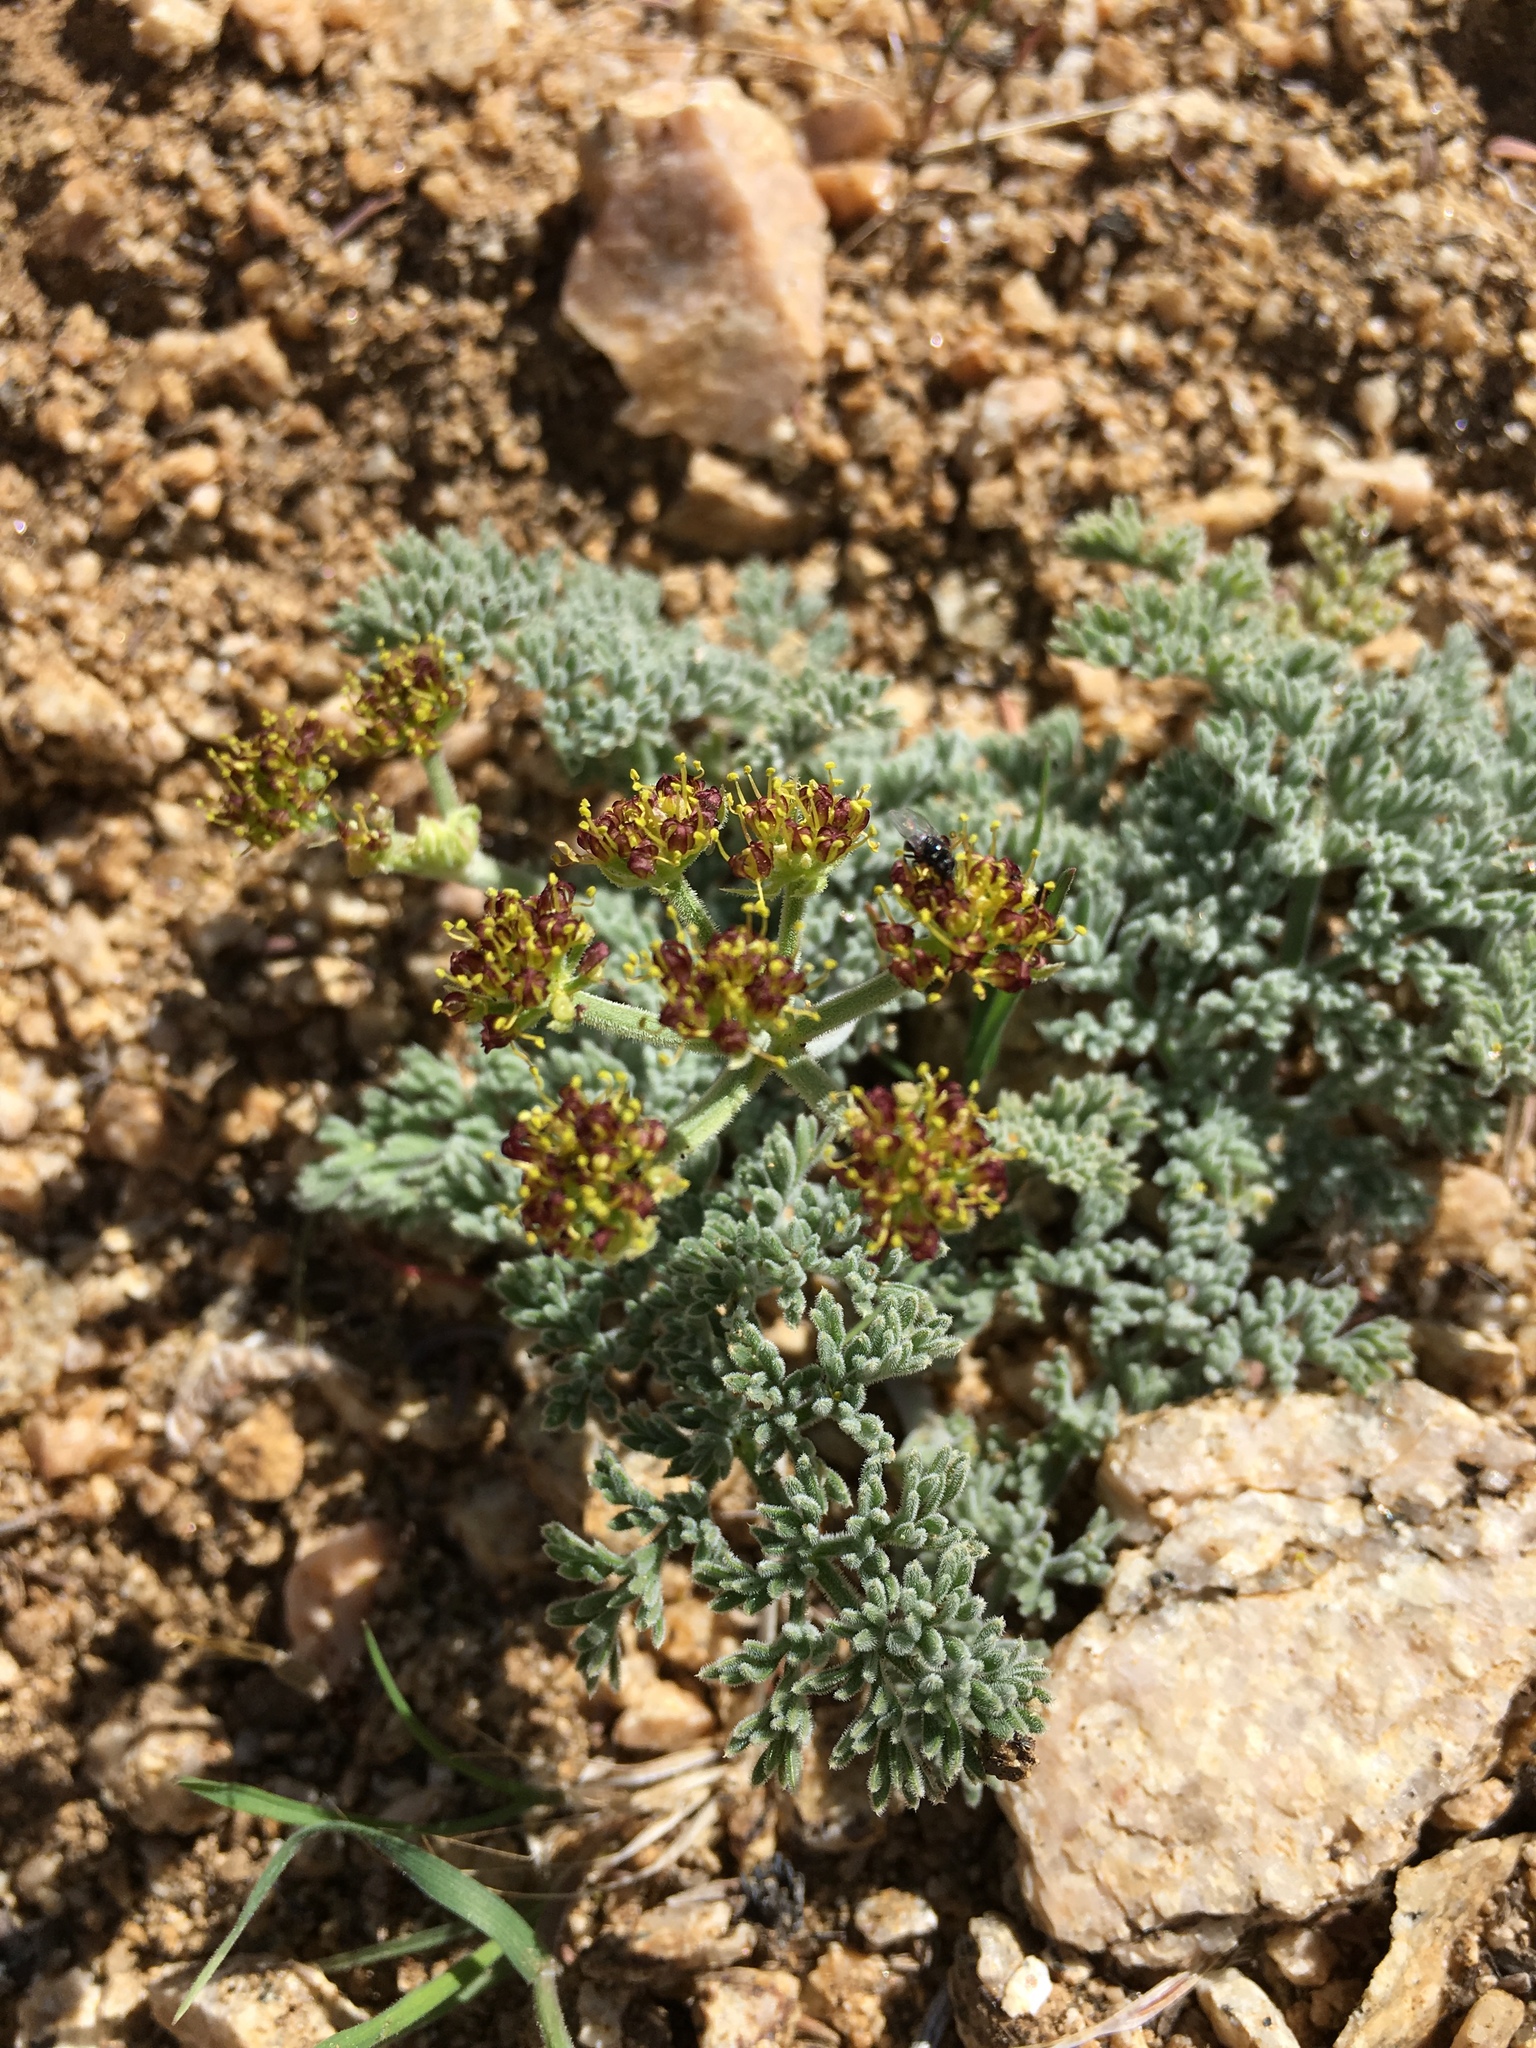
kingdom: Plantae
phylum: Tracheophyta
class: Magnoliopsida
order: Apiales
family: Apiaceae
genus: Lomatium
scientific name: Lomatium mohavense
